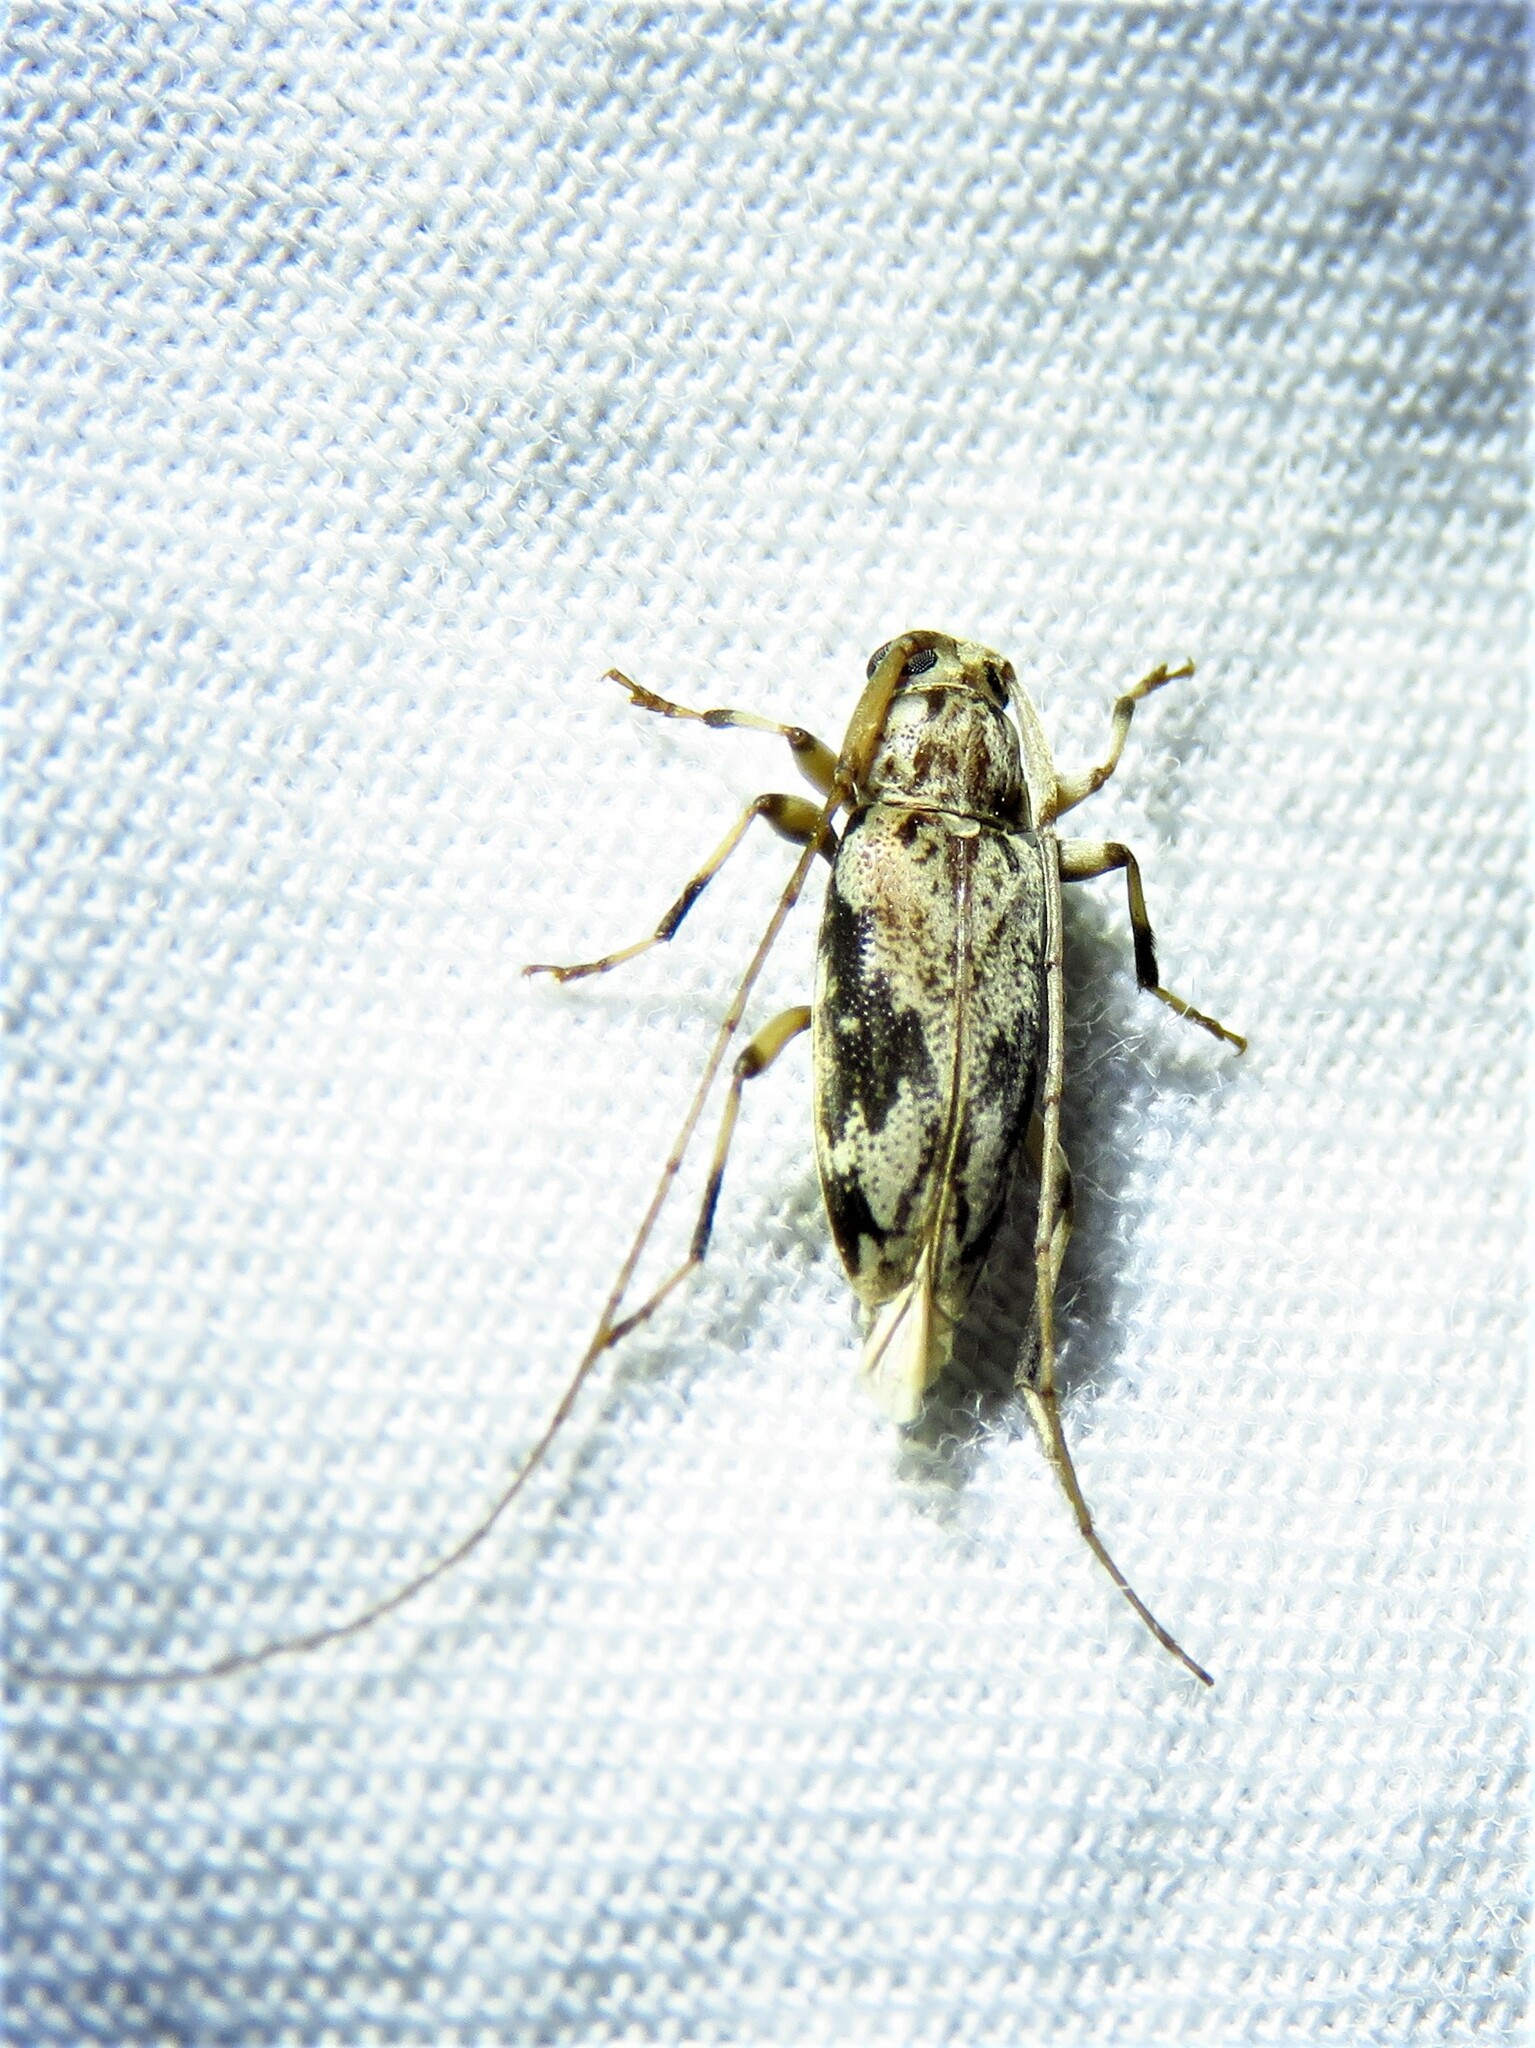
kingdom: Animalia
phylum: Arthropoda
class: Insecta
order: Coleoptera
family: Cerambycidae
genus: Lepturges
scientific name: Lepturges angulatus
